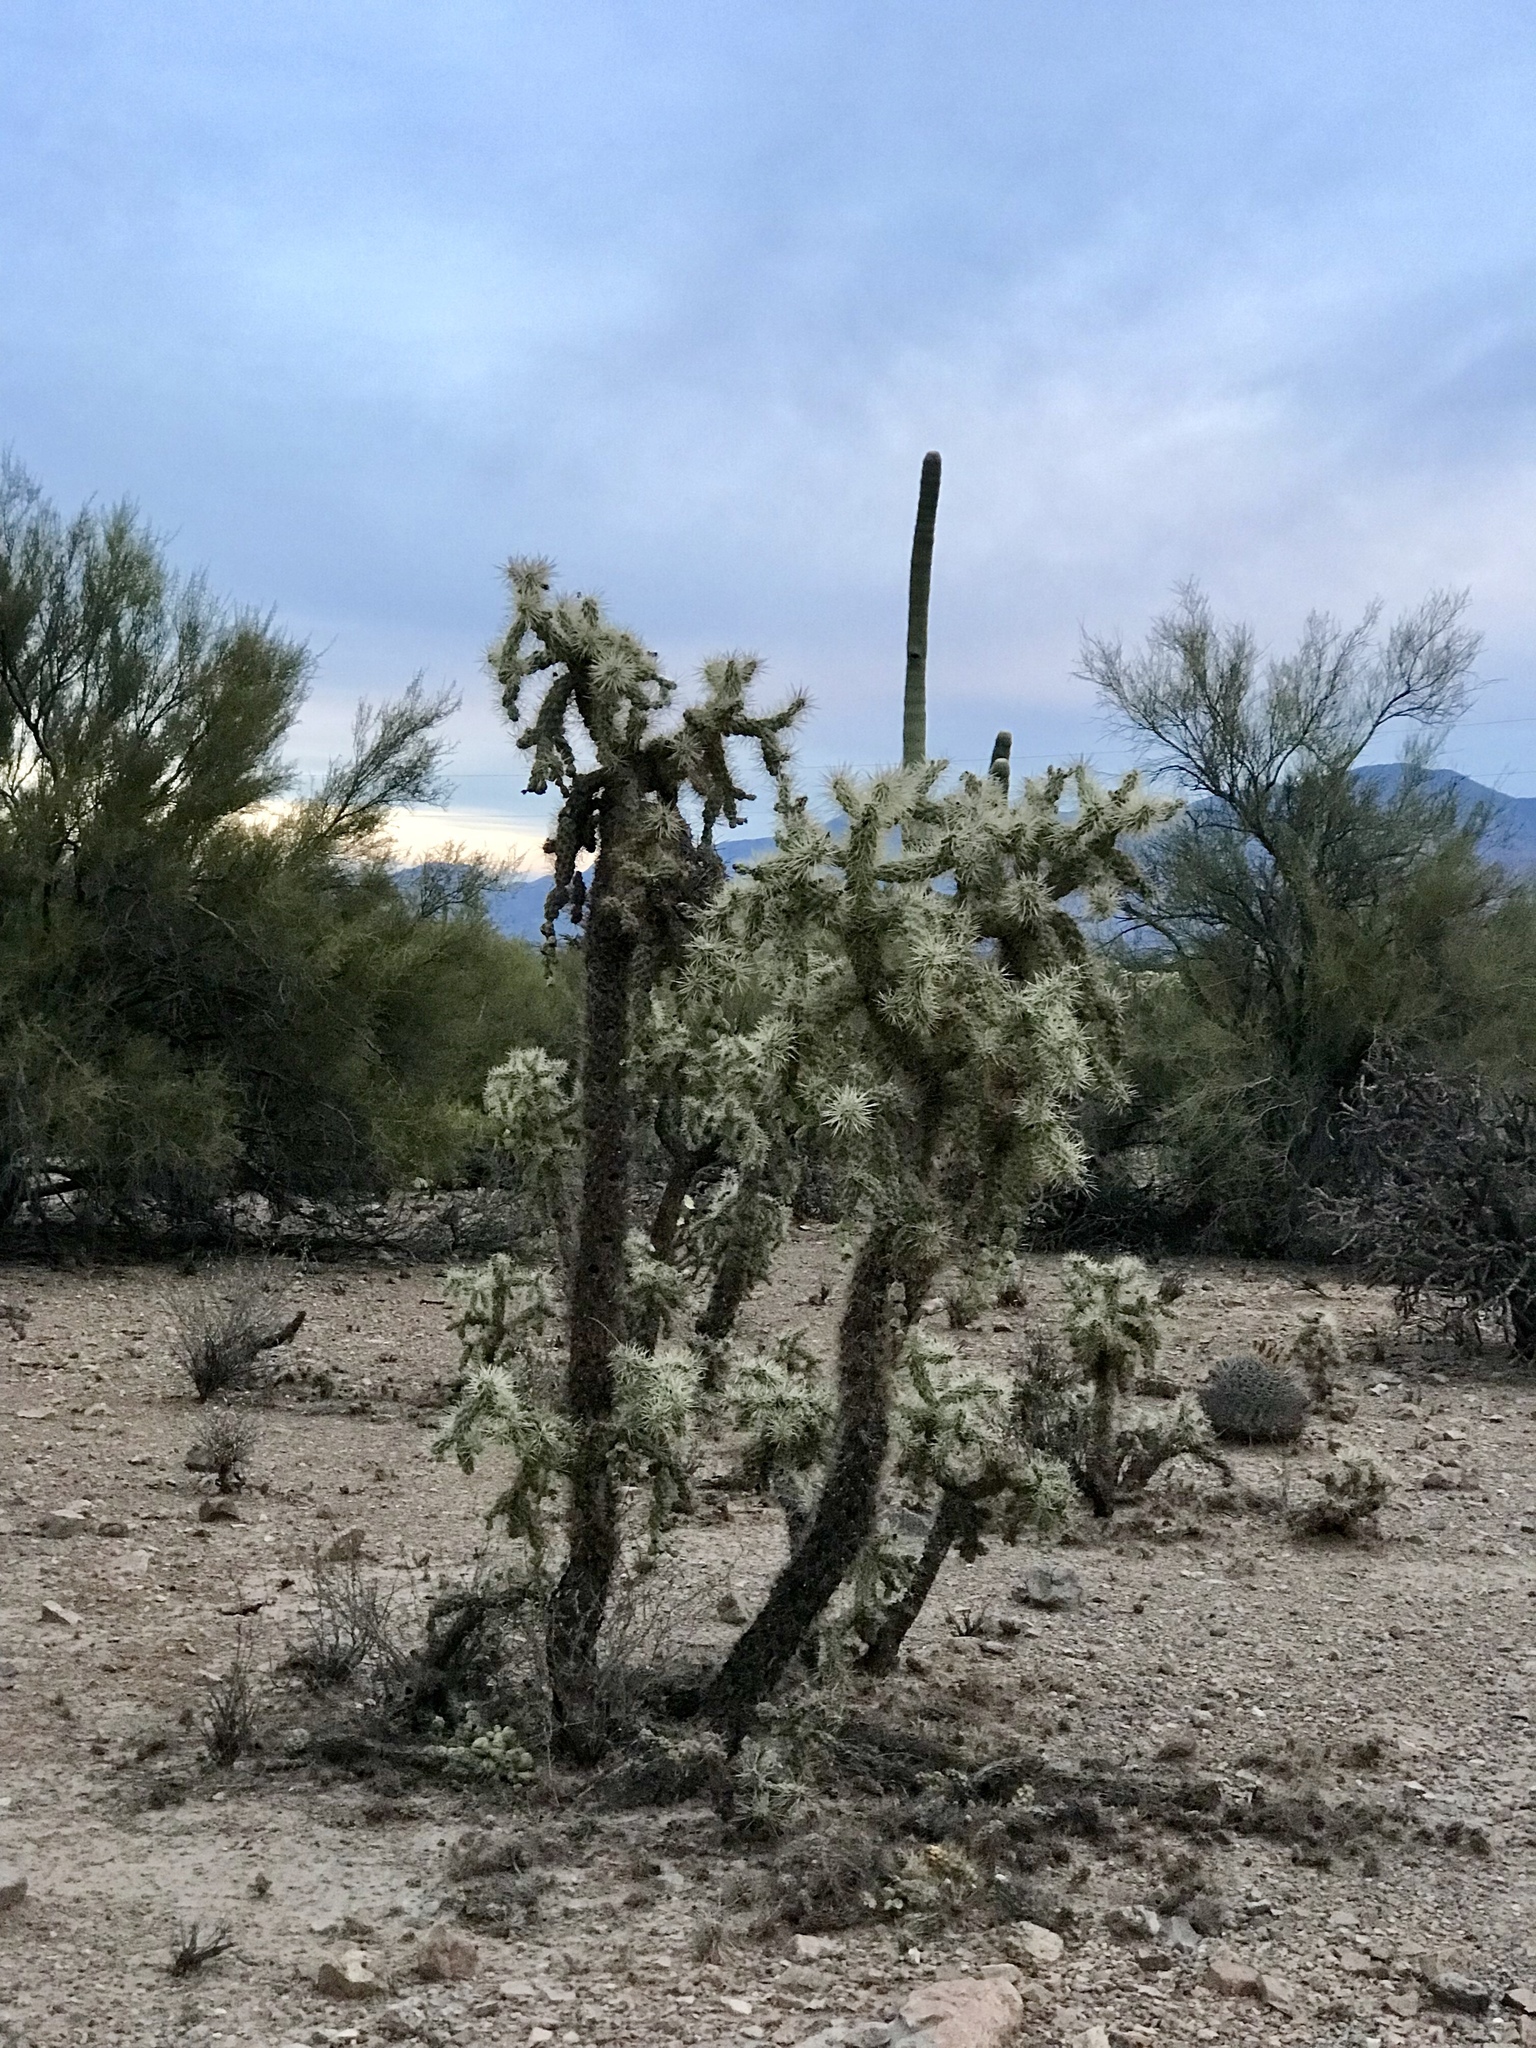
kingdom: Plantae
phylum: Tracheophyta
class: Magnoliopsida
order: Caryophyllales
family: Cactaceae
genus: Cylindropuntia
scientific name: Cylindropuntia fulgida
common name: Jumping cholla
